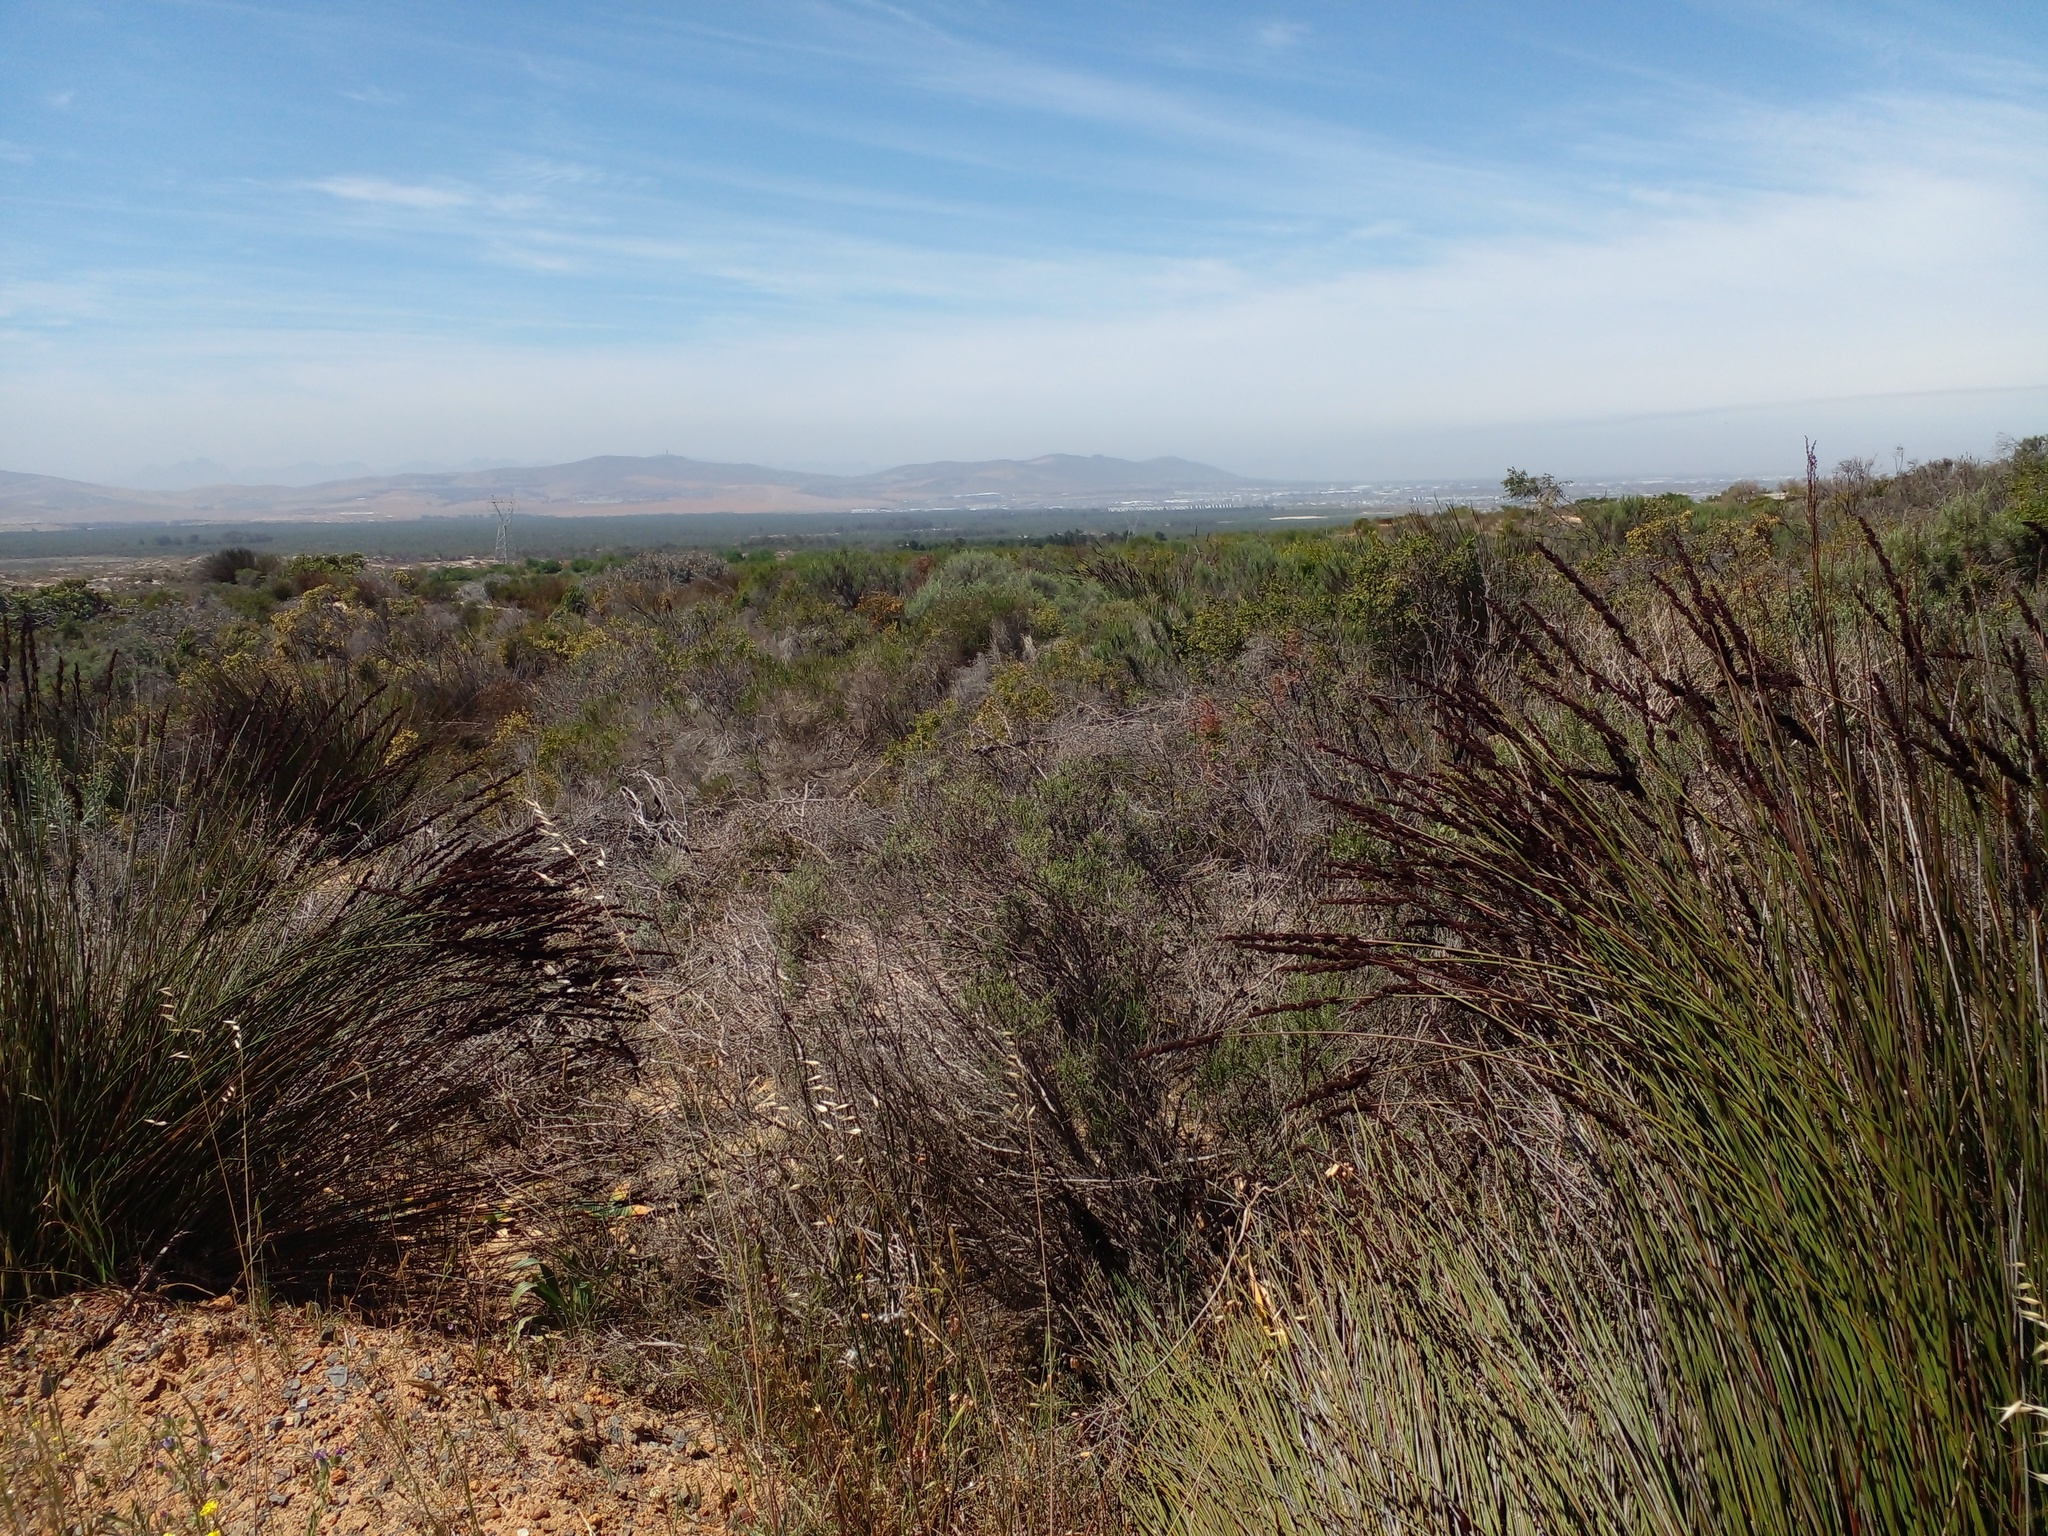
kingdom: Plantae
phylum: Tracheophyta
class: Liliopsida
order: Poales
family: Restionaceae
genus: Elegia
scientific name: Elegia tectorum
